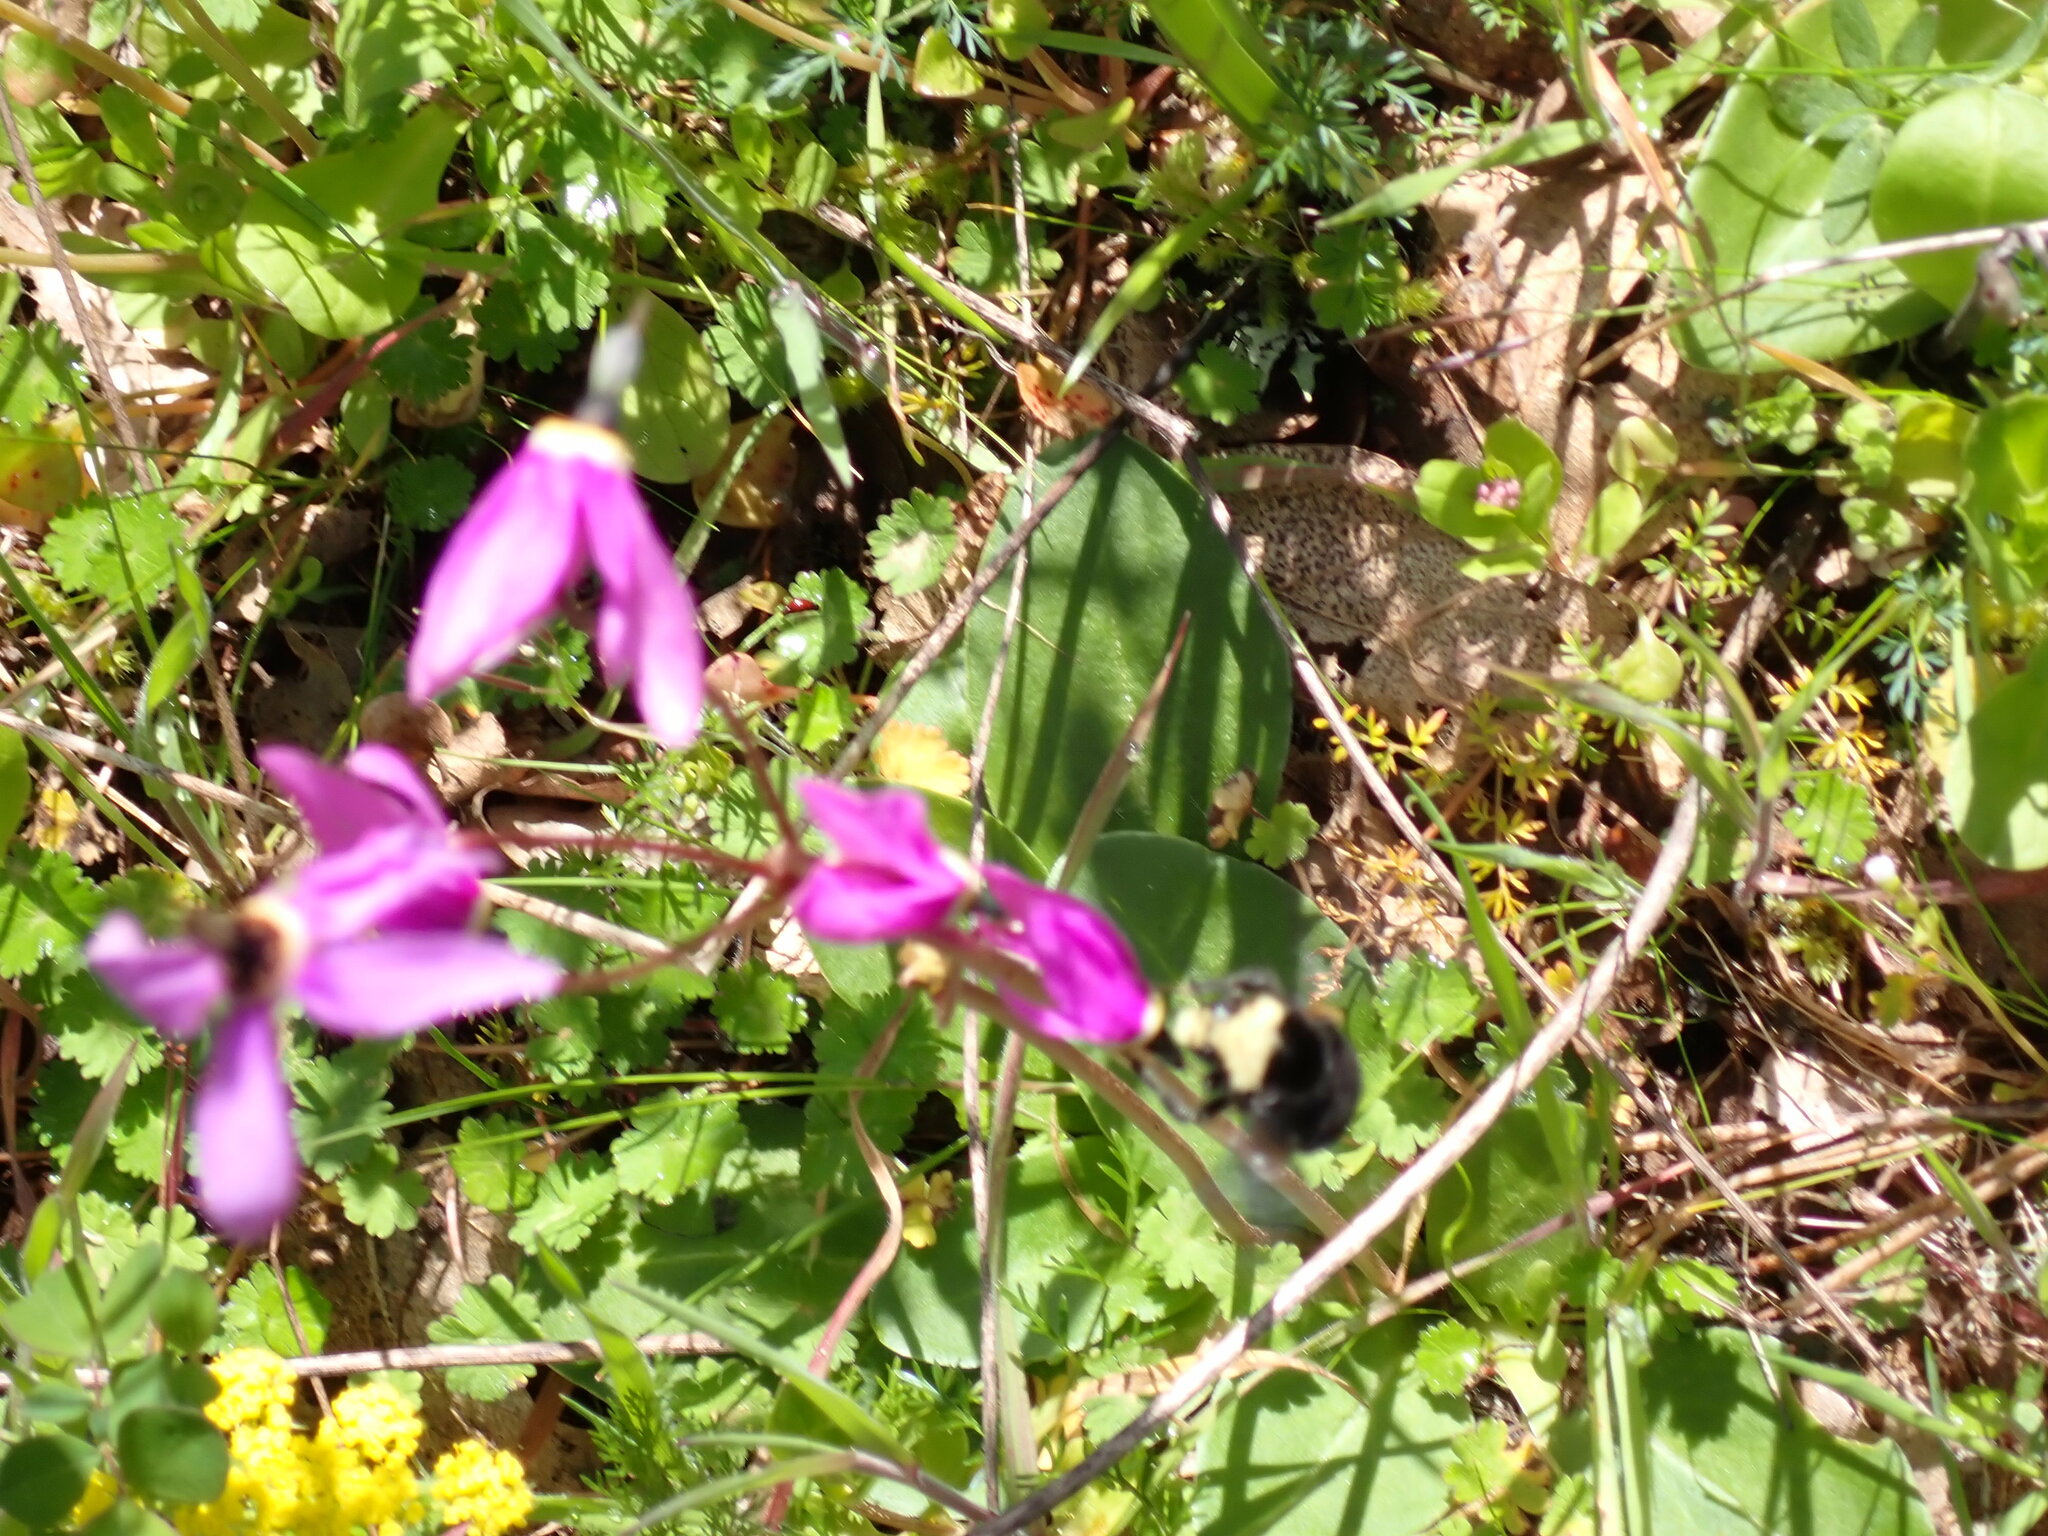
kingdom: Animalia
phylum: Arthropoda
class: Insecta
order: Hymenoptera
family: Apidae
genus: Bombus
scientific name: Bombus vosnesenskii
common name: Vosnesensky bumble bee
